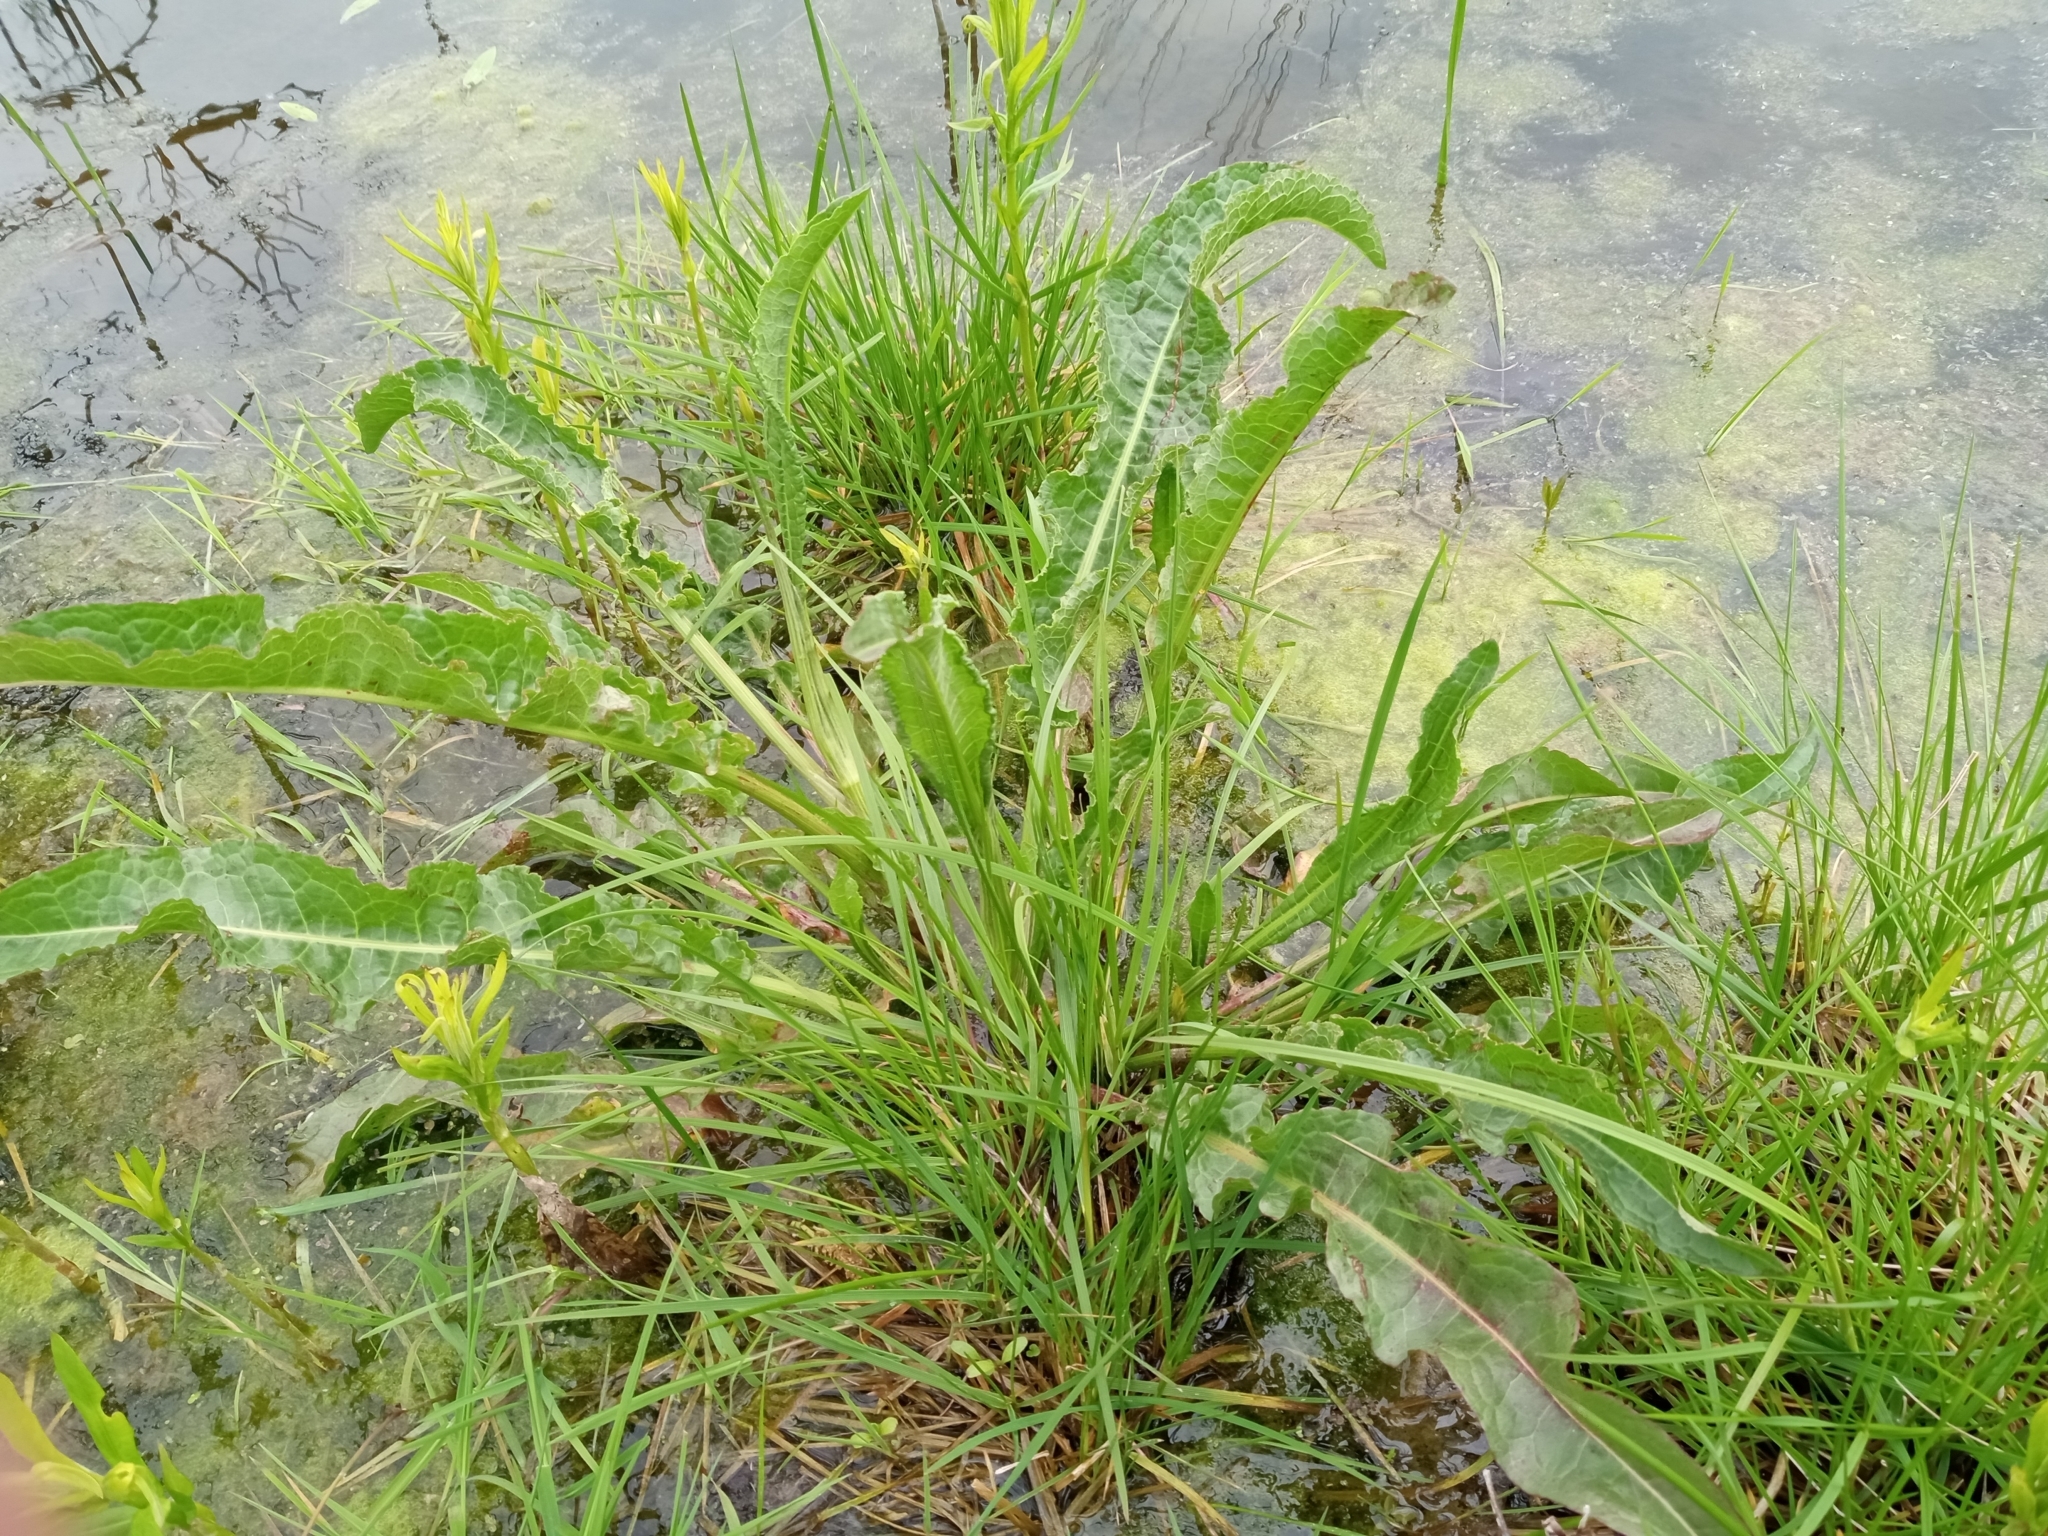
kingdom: Plantae
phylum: Tracheophyta
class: Magnoliopsida
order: Caryophyllales
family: Polygonaceae
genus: Rumex
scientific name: Rumex hydrolapathum
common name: Water dock
